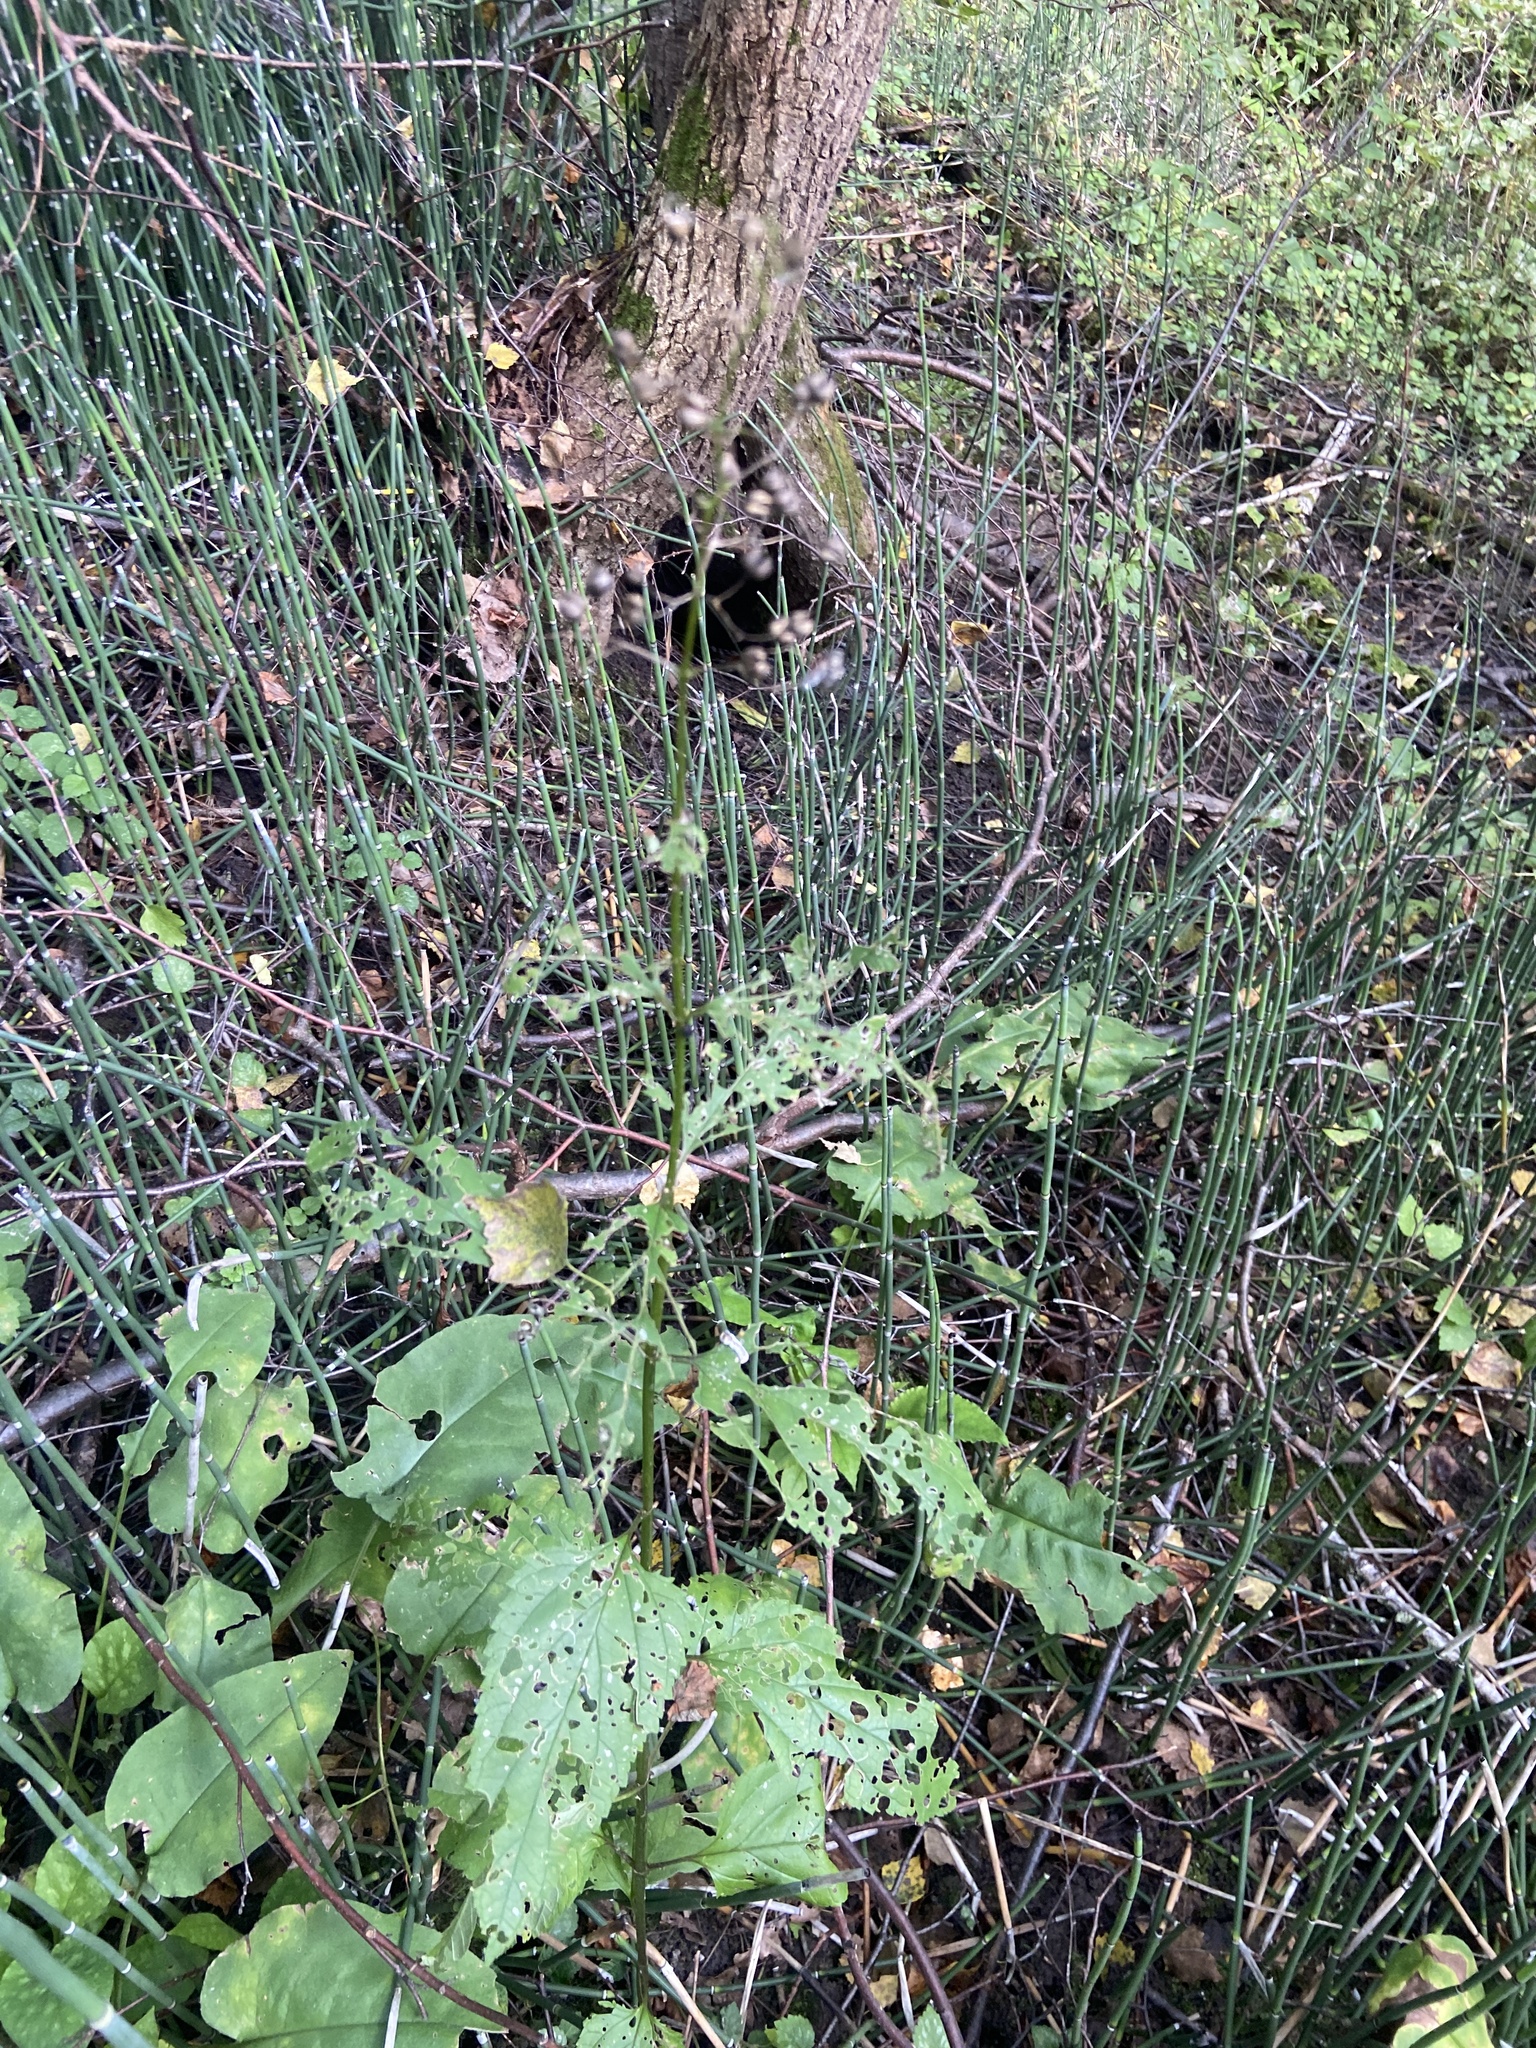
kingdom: Plantae
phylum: Tracheophyta
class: Magnoliopsida
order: Lamiales
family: Scrophulariaceae
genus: Scrophularia
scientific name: Scrophularia nodosa
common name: Common figwort
